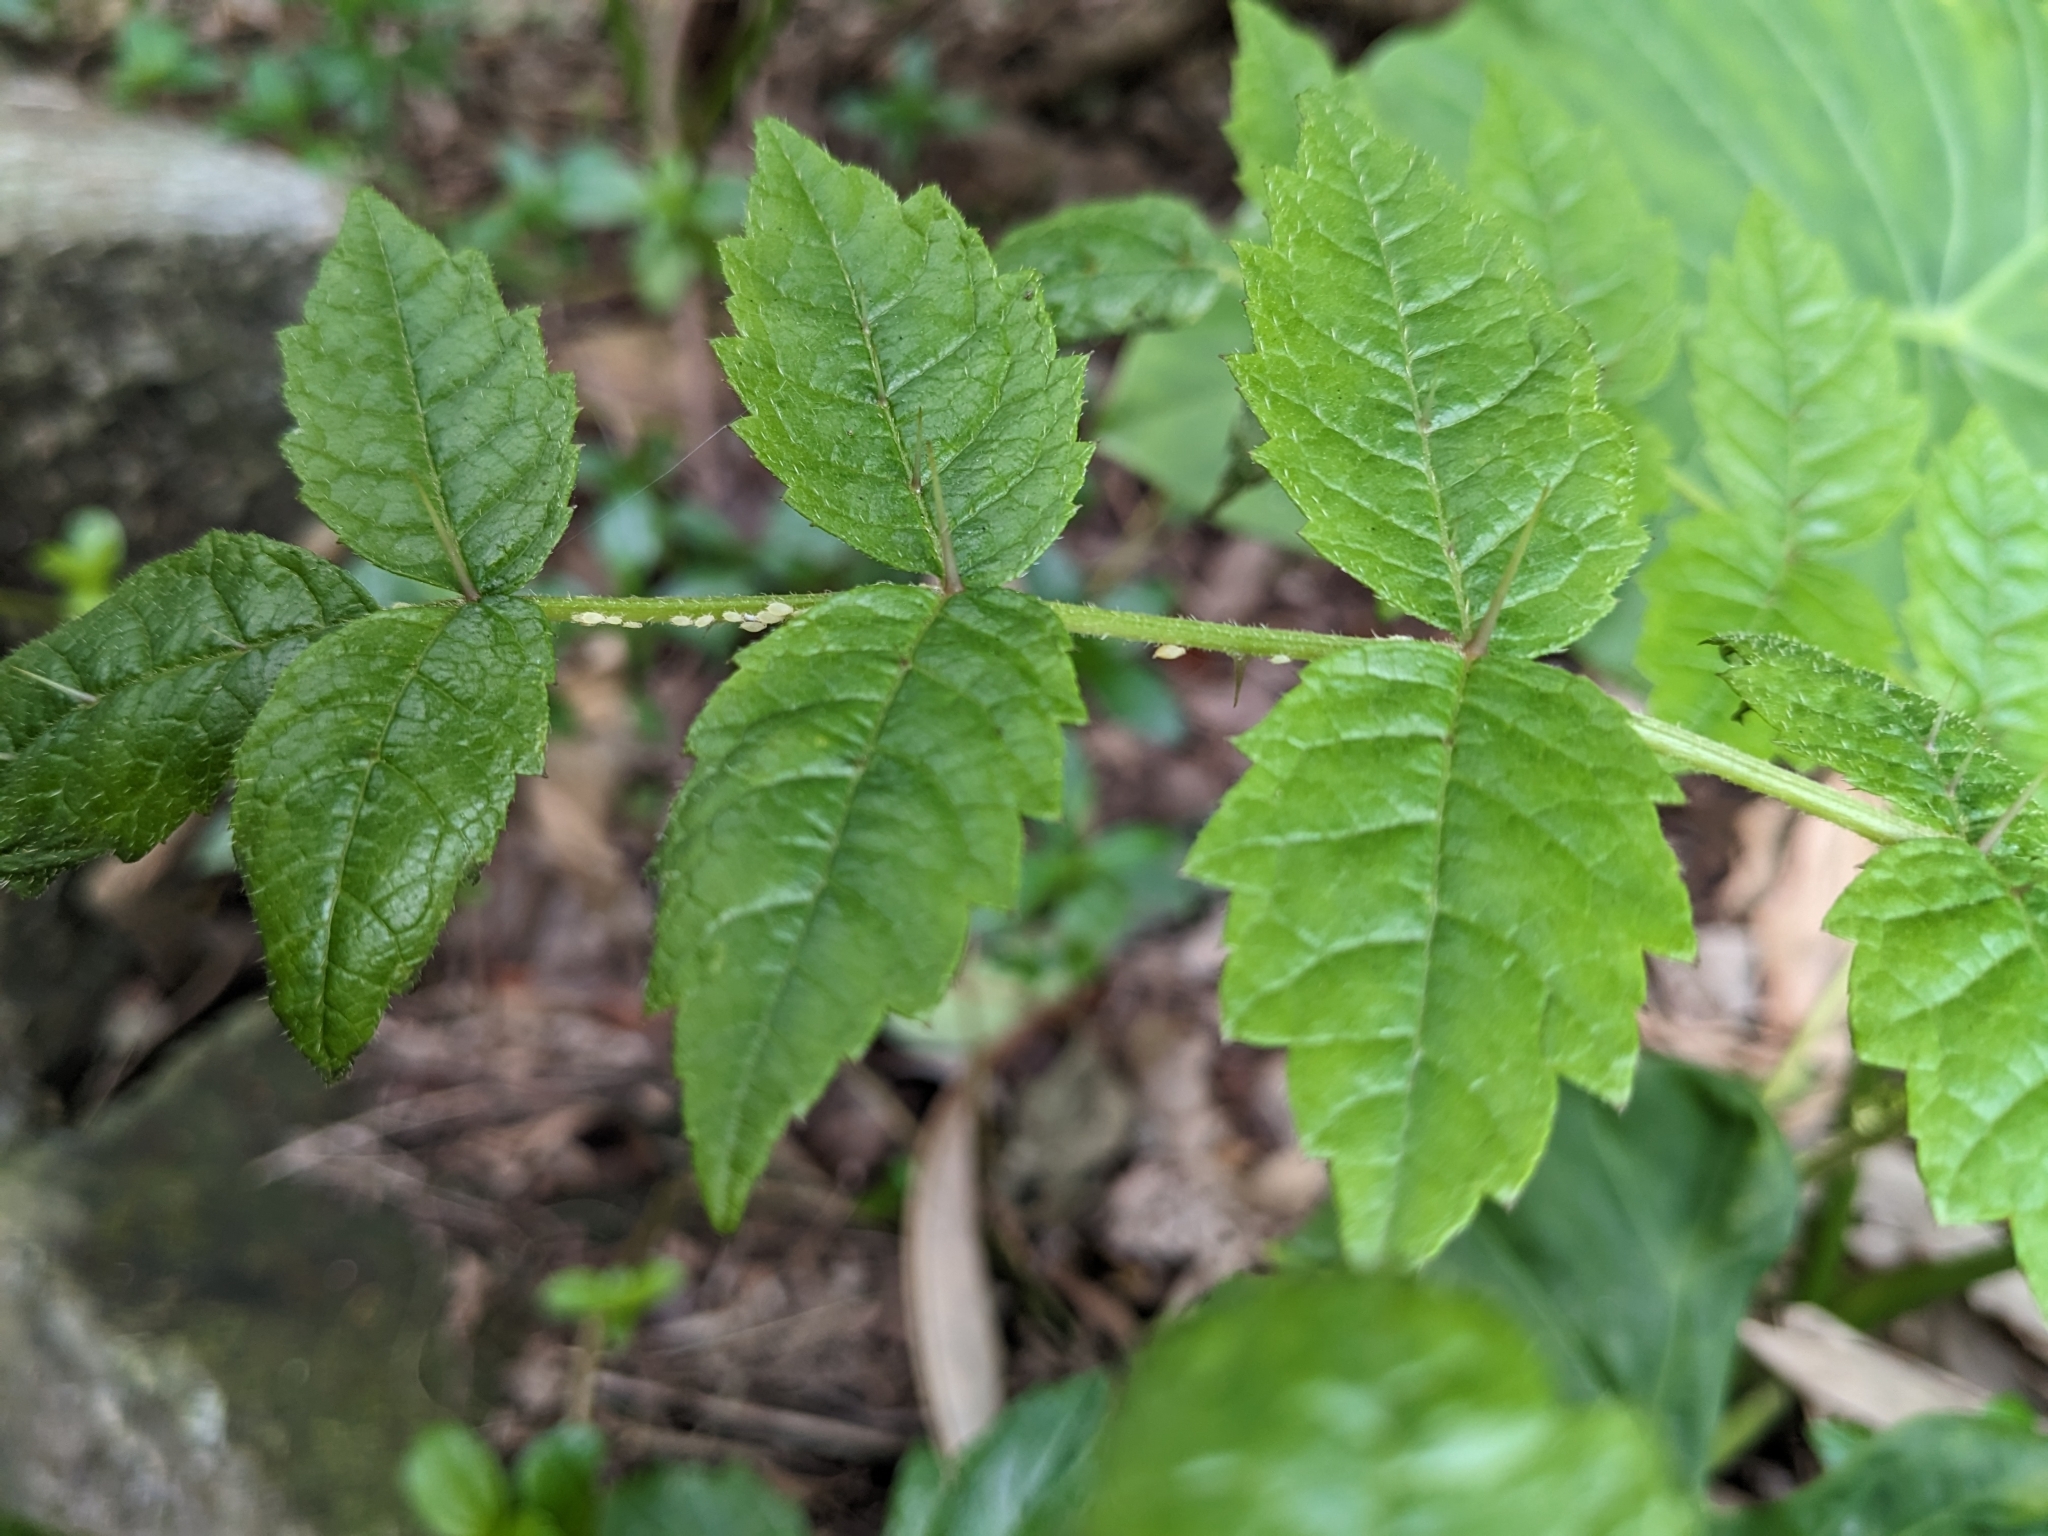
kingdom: Plantae
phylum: Tracheophyta
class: Magnoliopsida
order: Apiales
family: Araliaceae
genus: Aralia
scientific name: Aralia decaisneana
